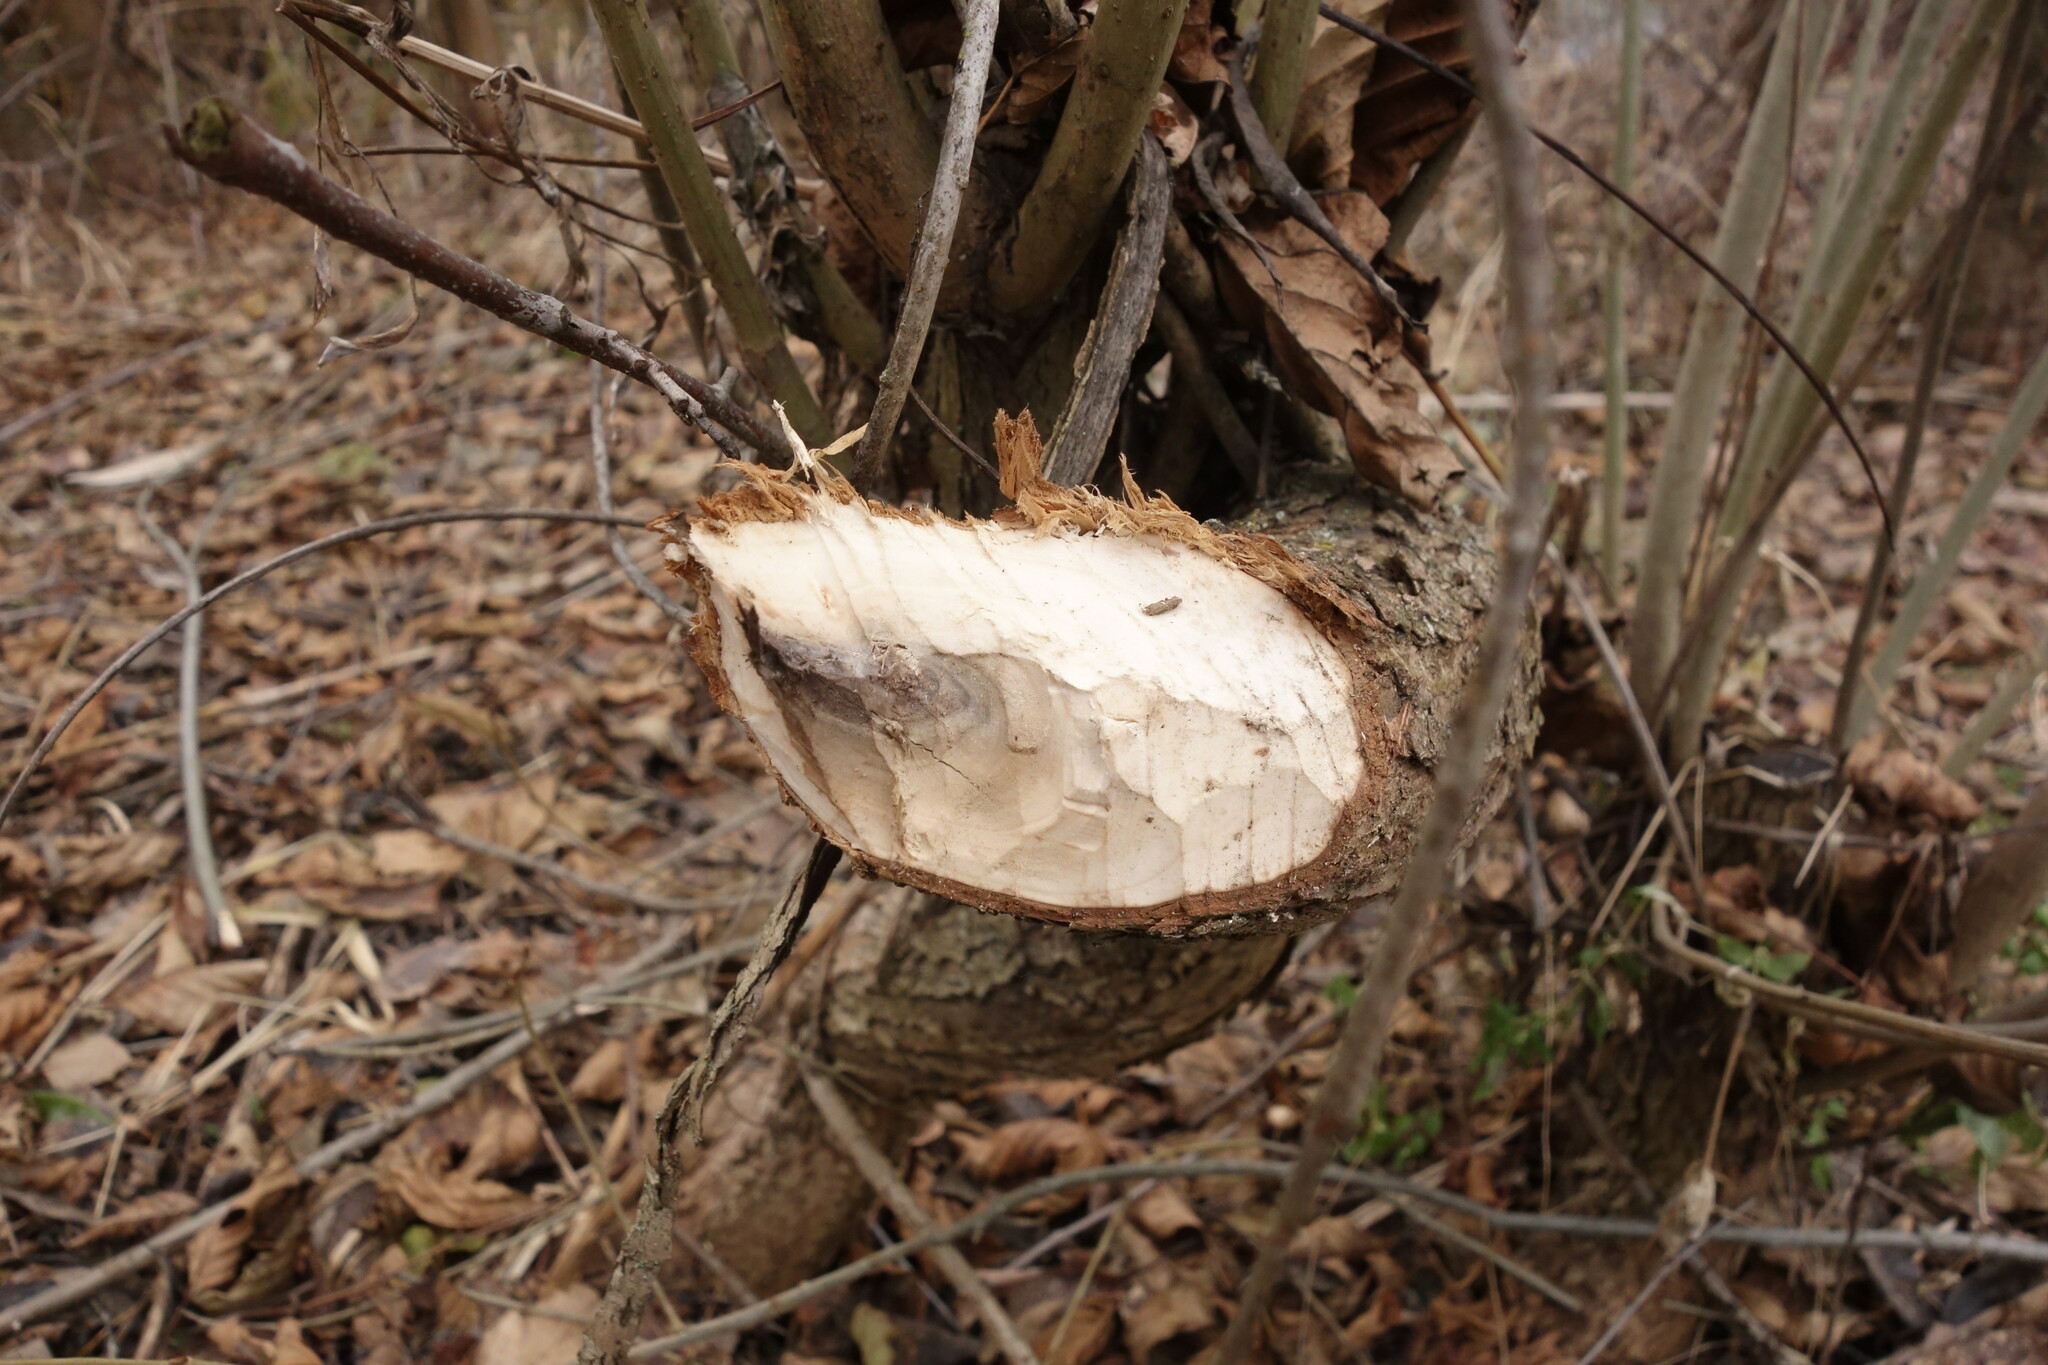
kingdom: Animalia
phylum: Chordata
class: Mammalia
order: Rodentia
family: Castoridae
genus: Castor
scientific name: Castor fiber
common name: Eurasian beaver
